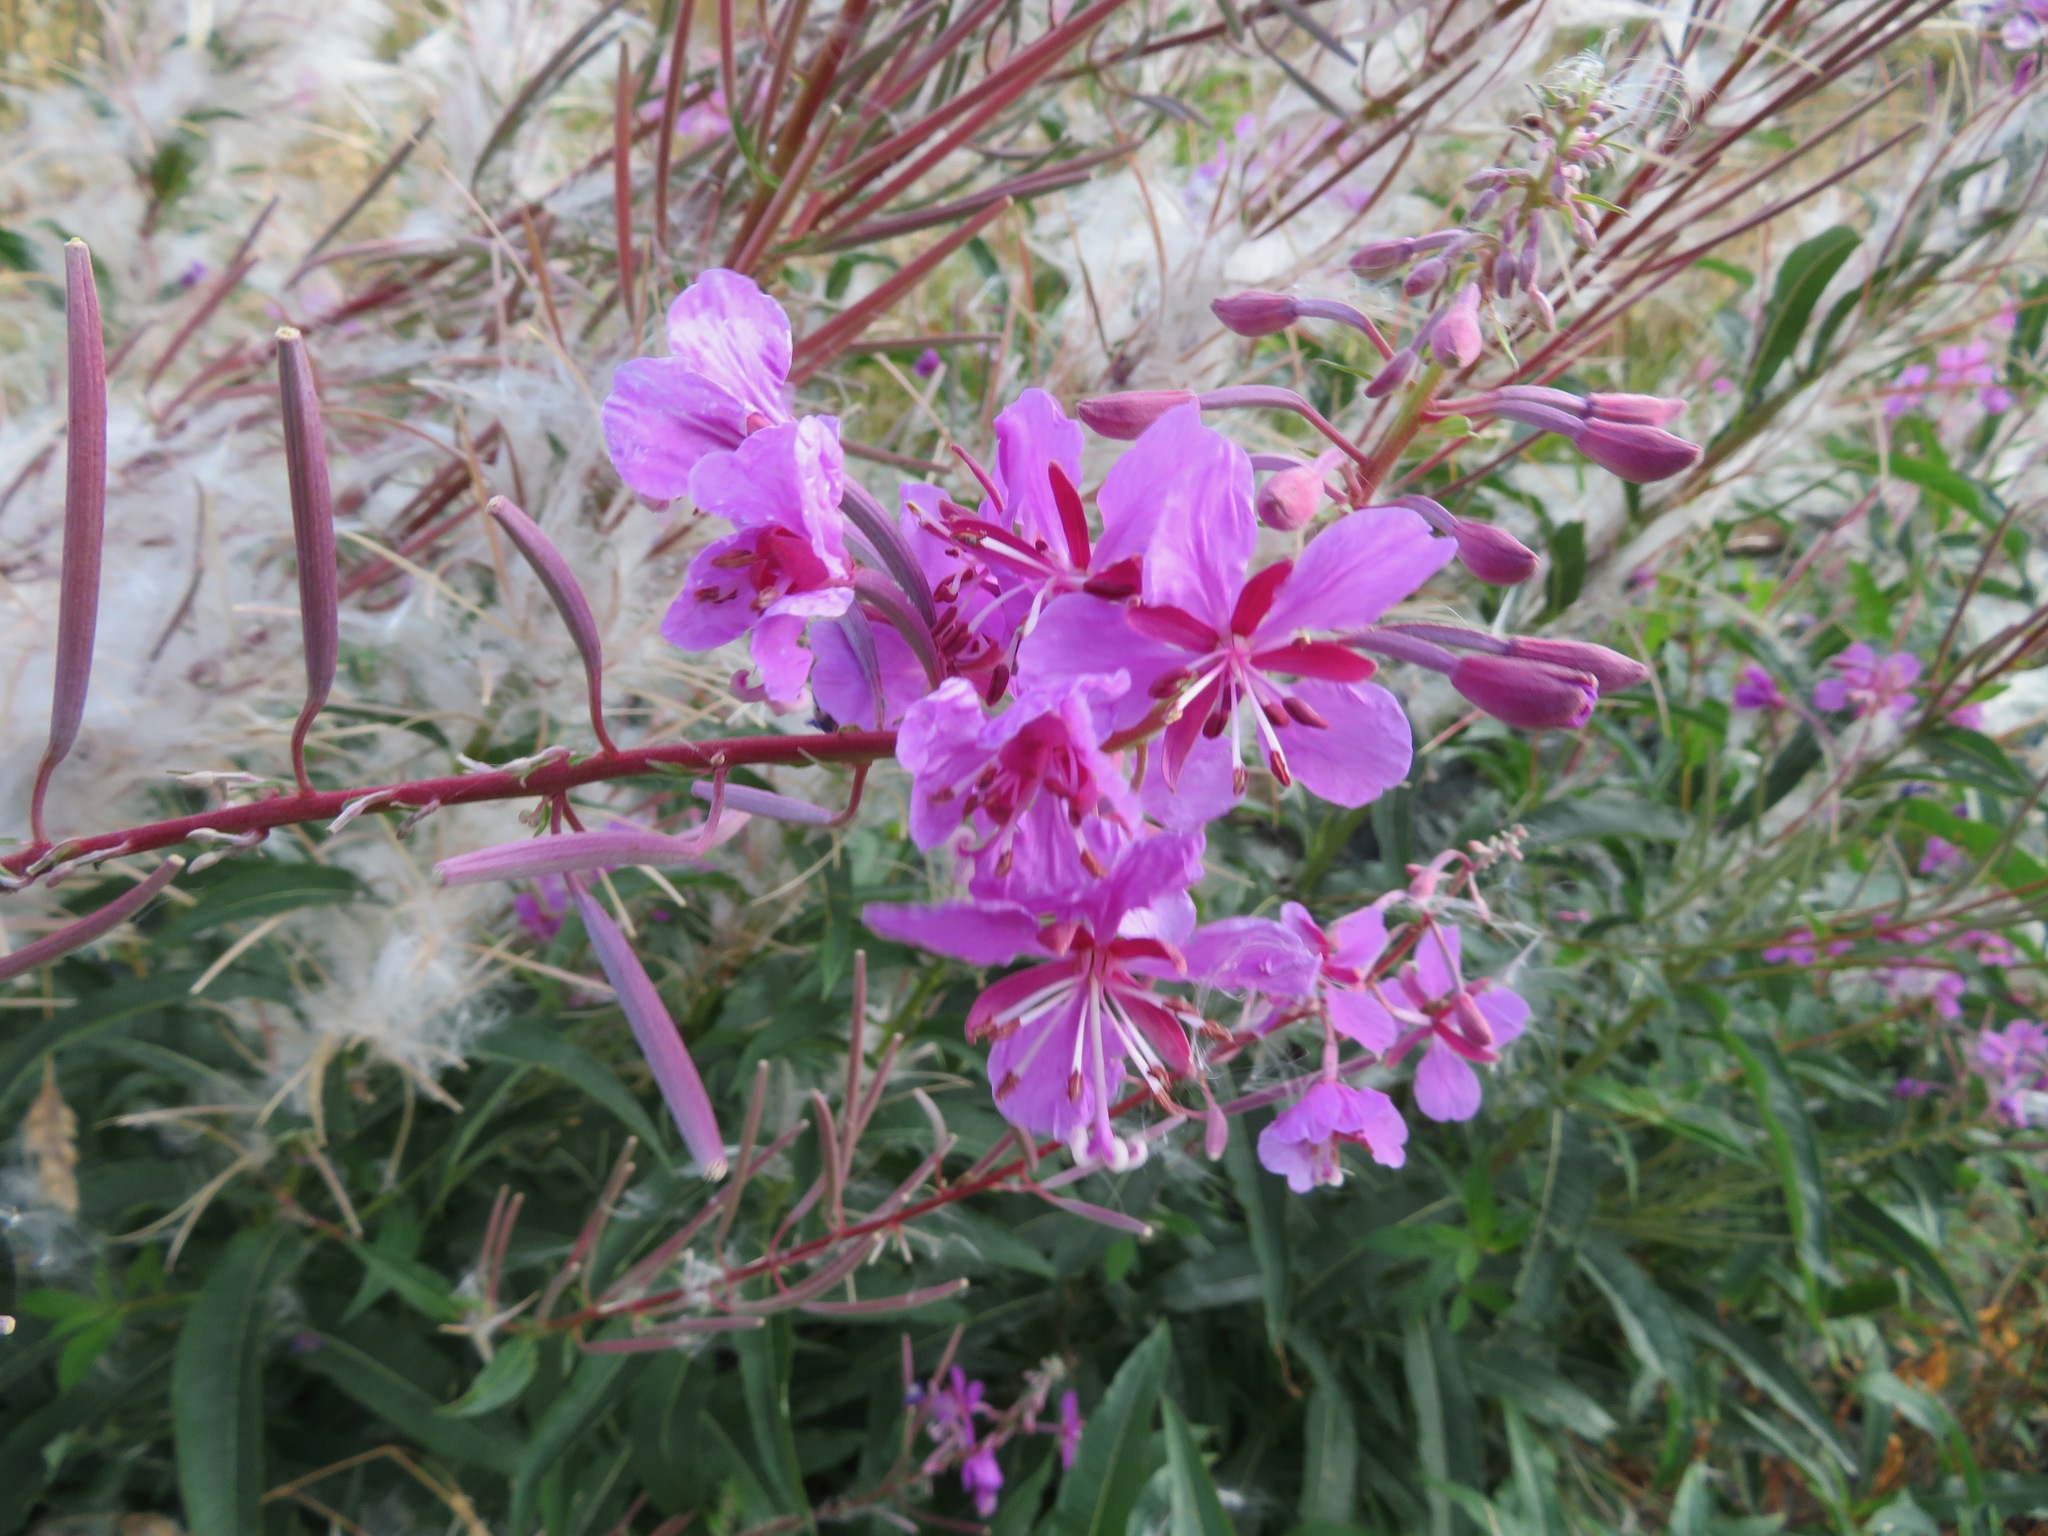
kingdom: Plantae
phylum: Tracheophyta
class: Magnoliopsida
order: Myrtales
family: Onagraceae
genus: Chamaenerion
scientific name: Chamaenerion angustifolium
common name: Fireweed
